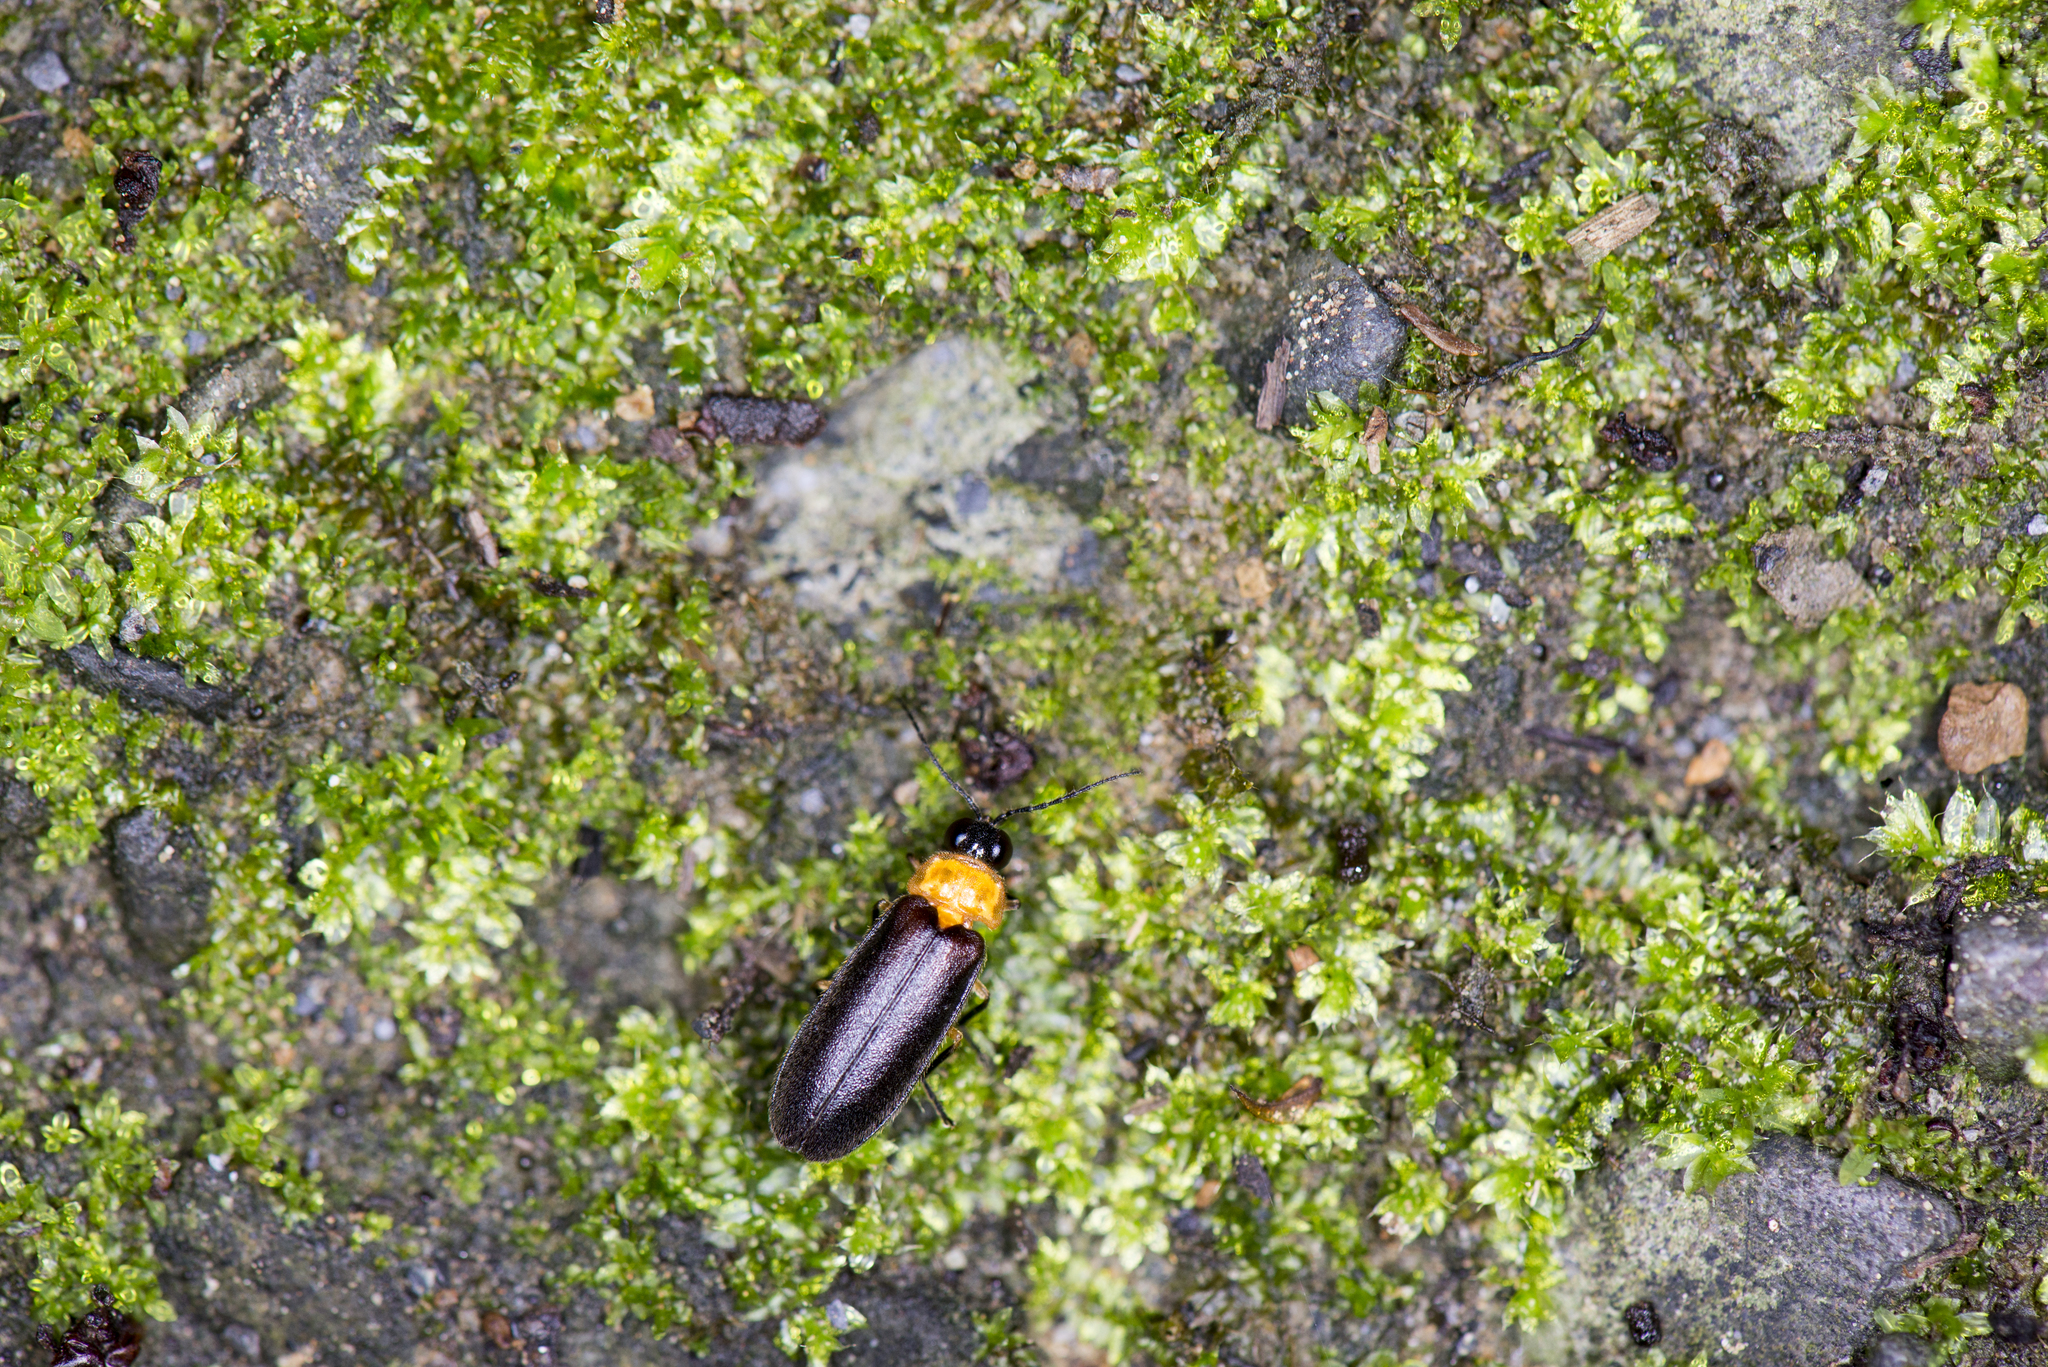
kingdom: Animalia
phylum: Arthropoda
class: Insecta
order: Coleoptera
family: Lampyridae
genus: Abscondita
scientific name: Abscondita cerata
